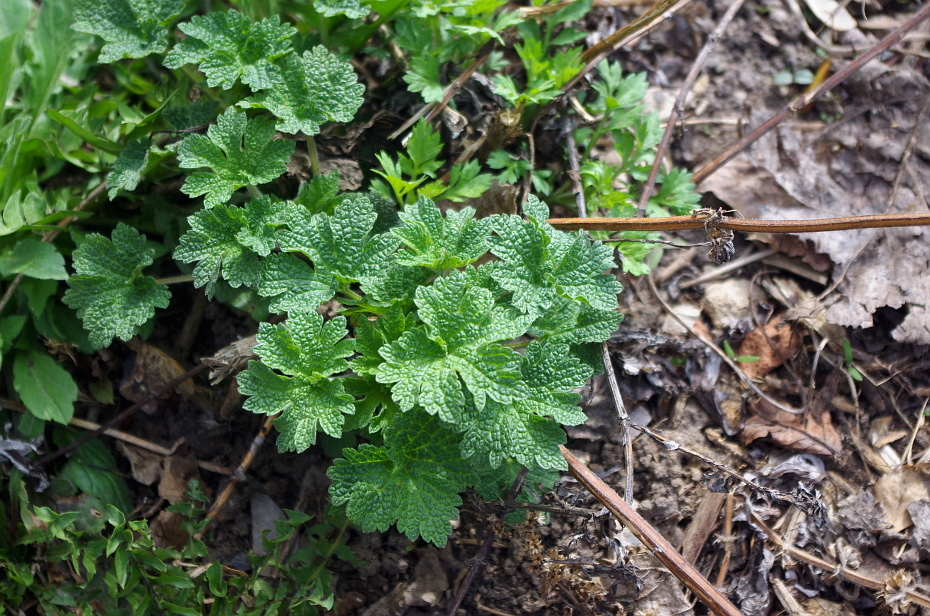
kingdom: Plantae
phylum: Tracheophyta
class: Magnoliopsida
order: Lamiales
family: Lamiaceae
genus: Leonurus
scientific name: Leonurus quinquelobatus
